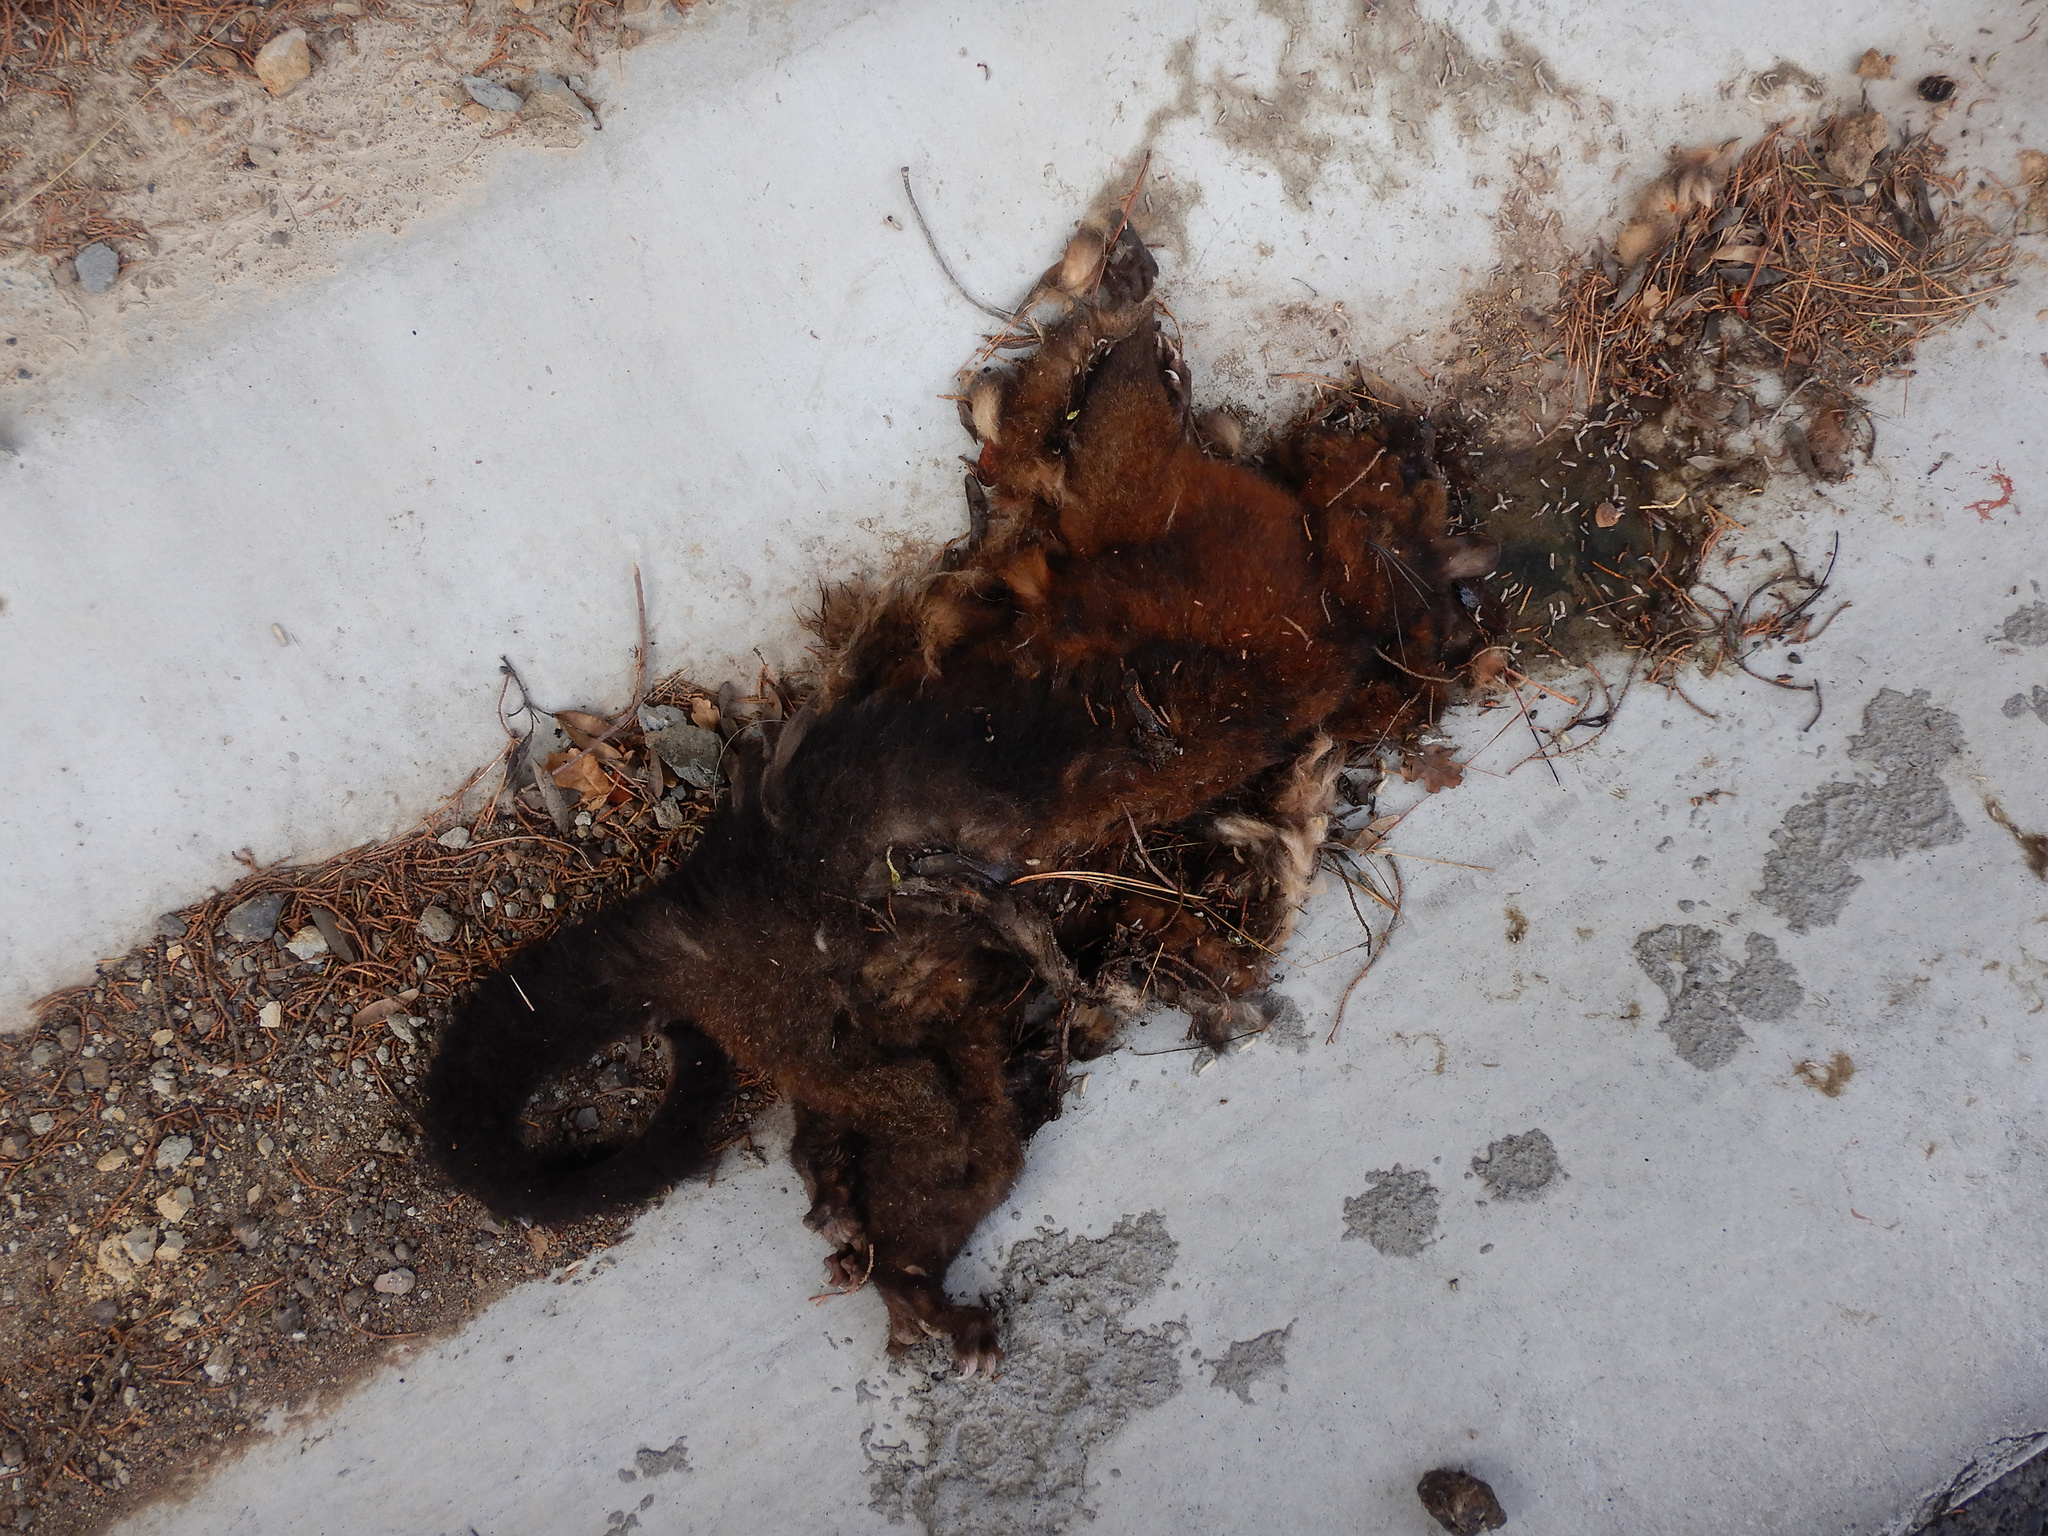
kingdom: Animalia
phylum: Chordata
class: Mammalia
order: Diprotodontia
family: Phalangeridae
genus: Trichosurus
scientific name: Trichosurus vulpecula
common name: Common brushtail
